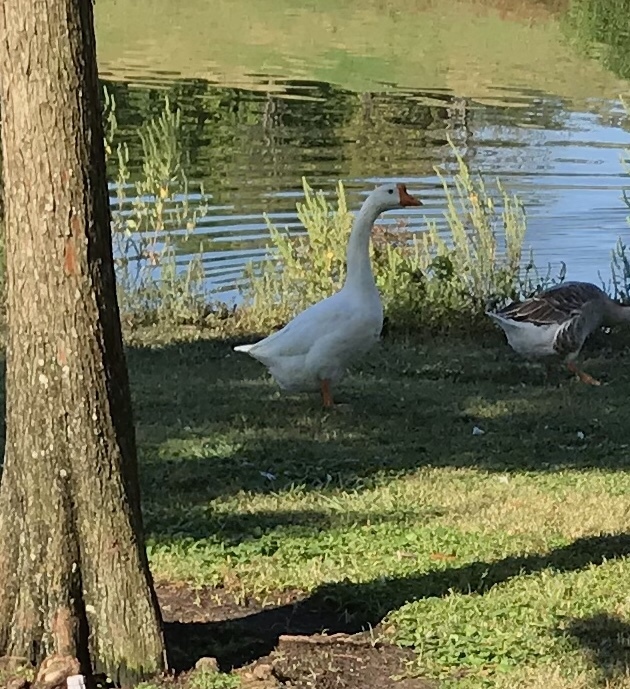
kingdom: Animalia
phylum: Chordata
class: Aves
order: Anseriformes
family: Anatidae
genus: Anser
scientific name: Anser cygnoides
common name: Swan goose
